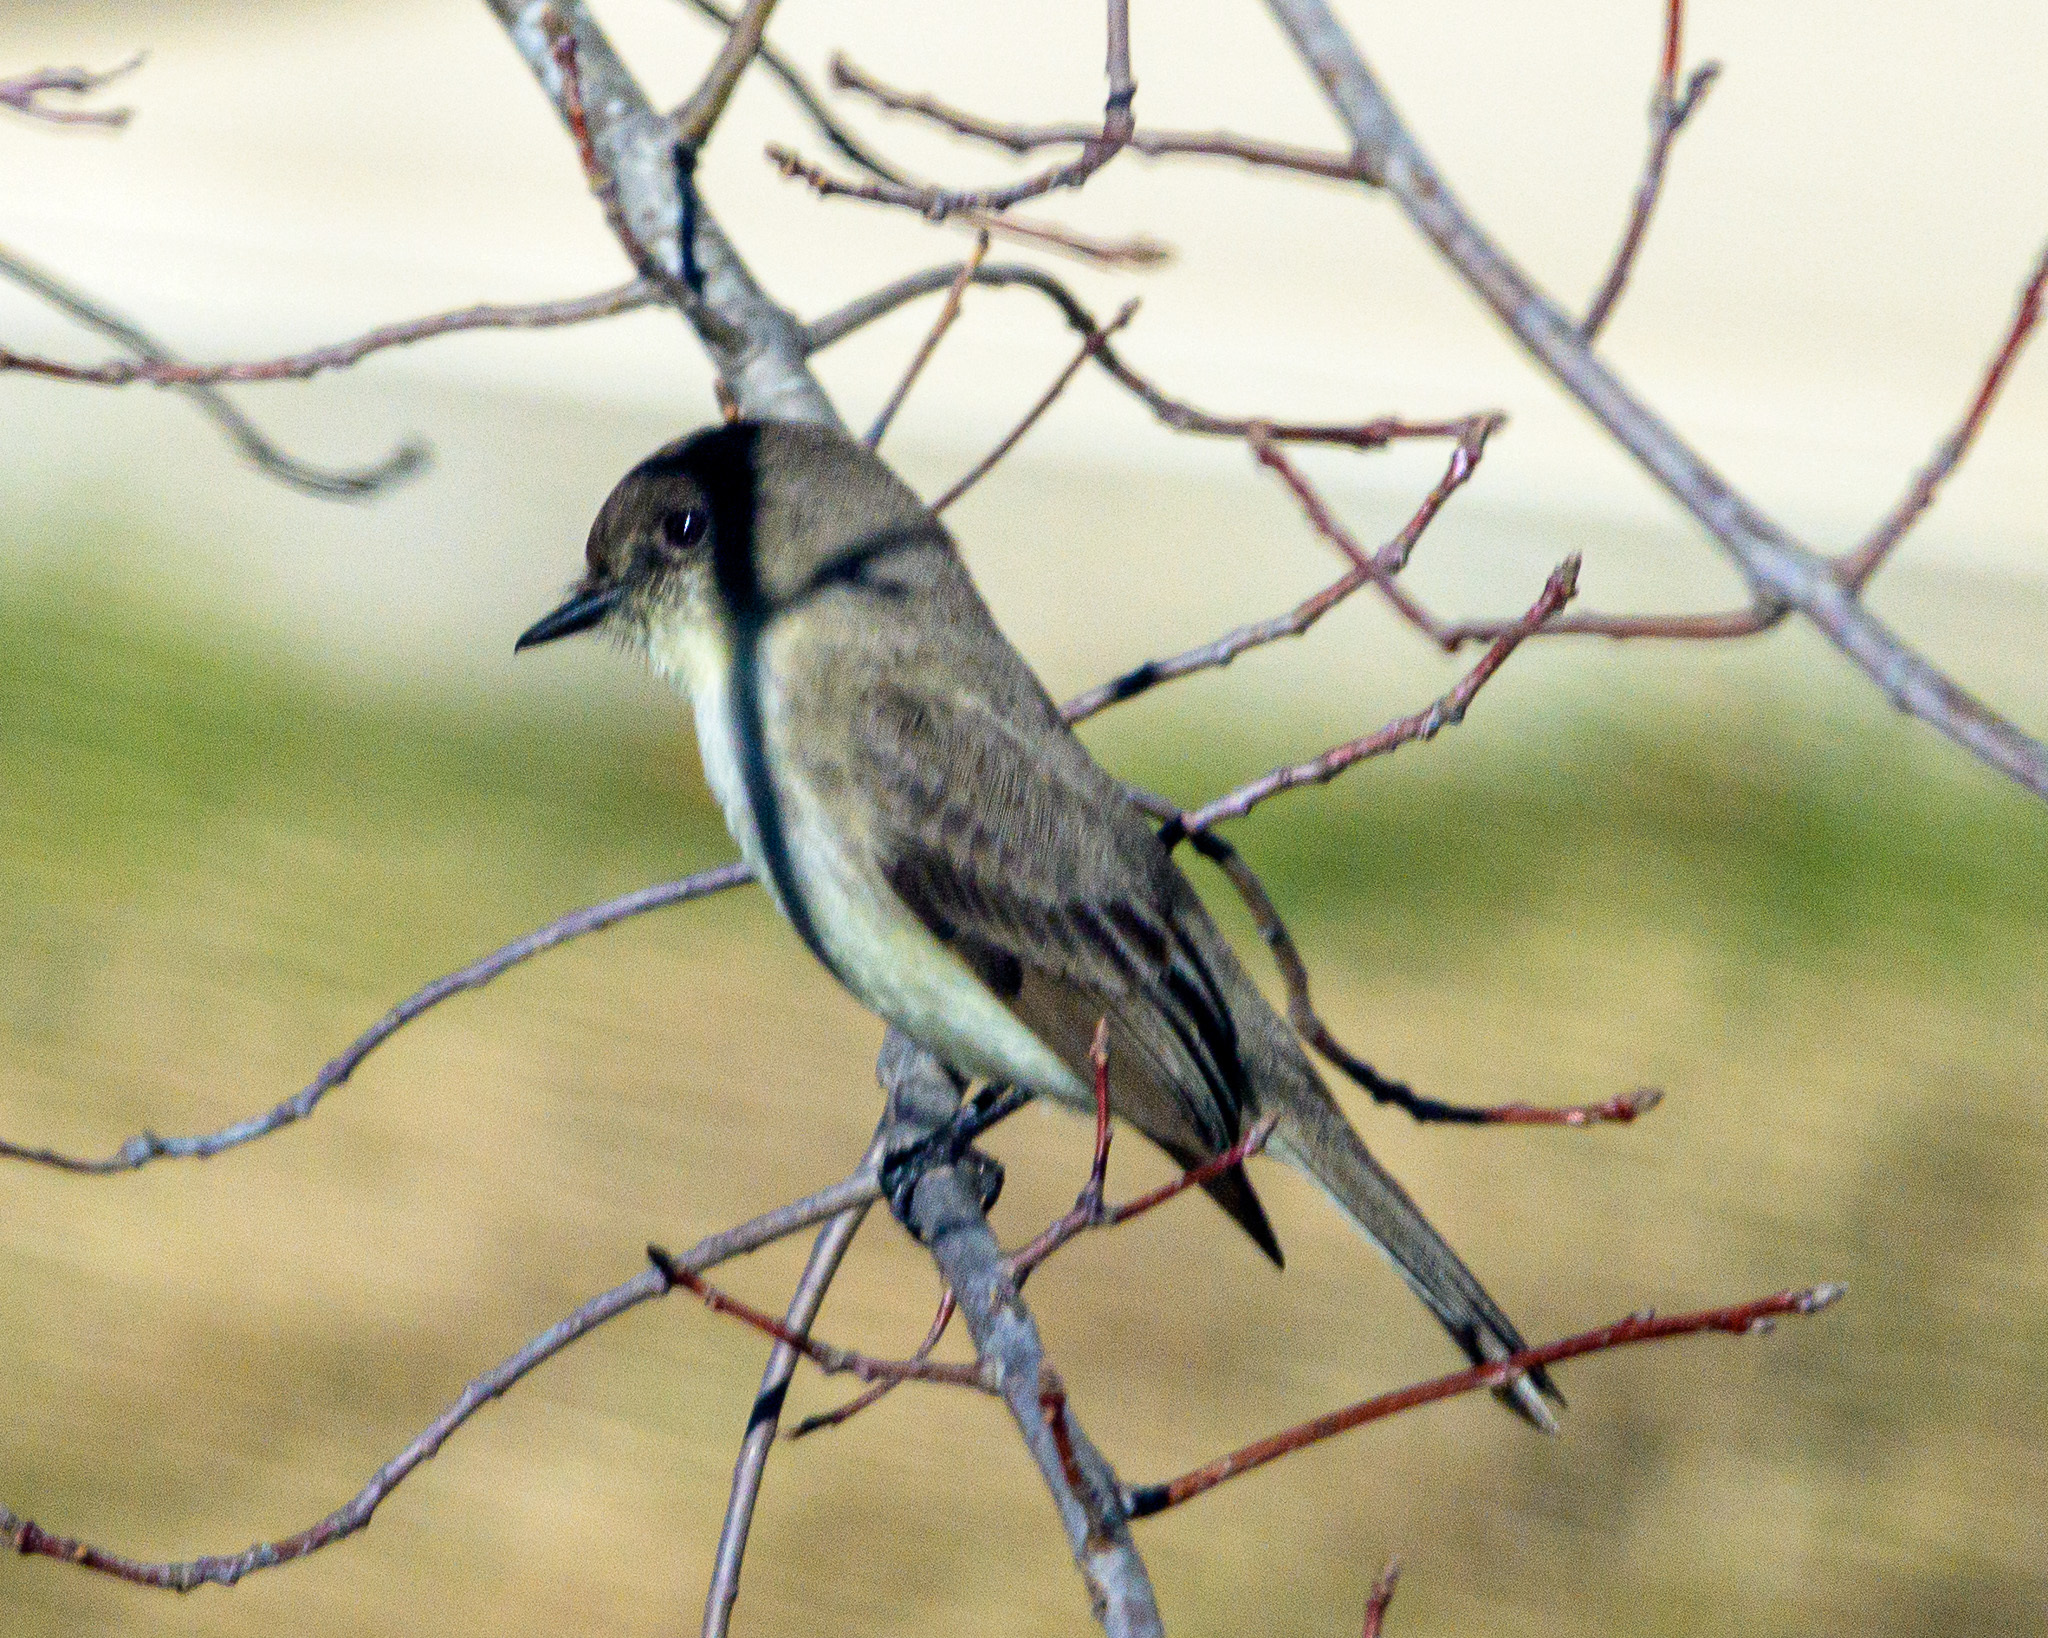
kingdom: Animalia
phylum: Chordata
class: Aves
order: Passeriformes
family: Tyrannidae
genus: Sayornis
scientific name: Sayornis phoebe
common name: Eastern phoebe
